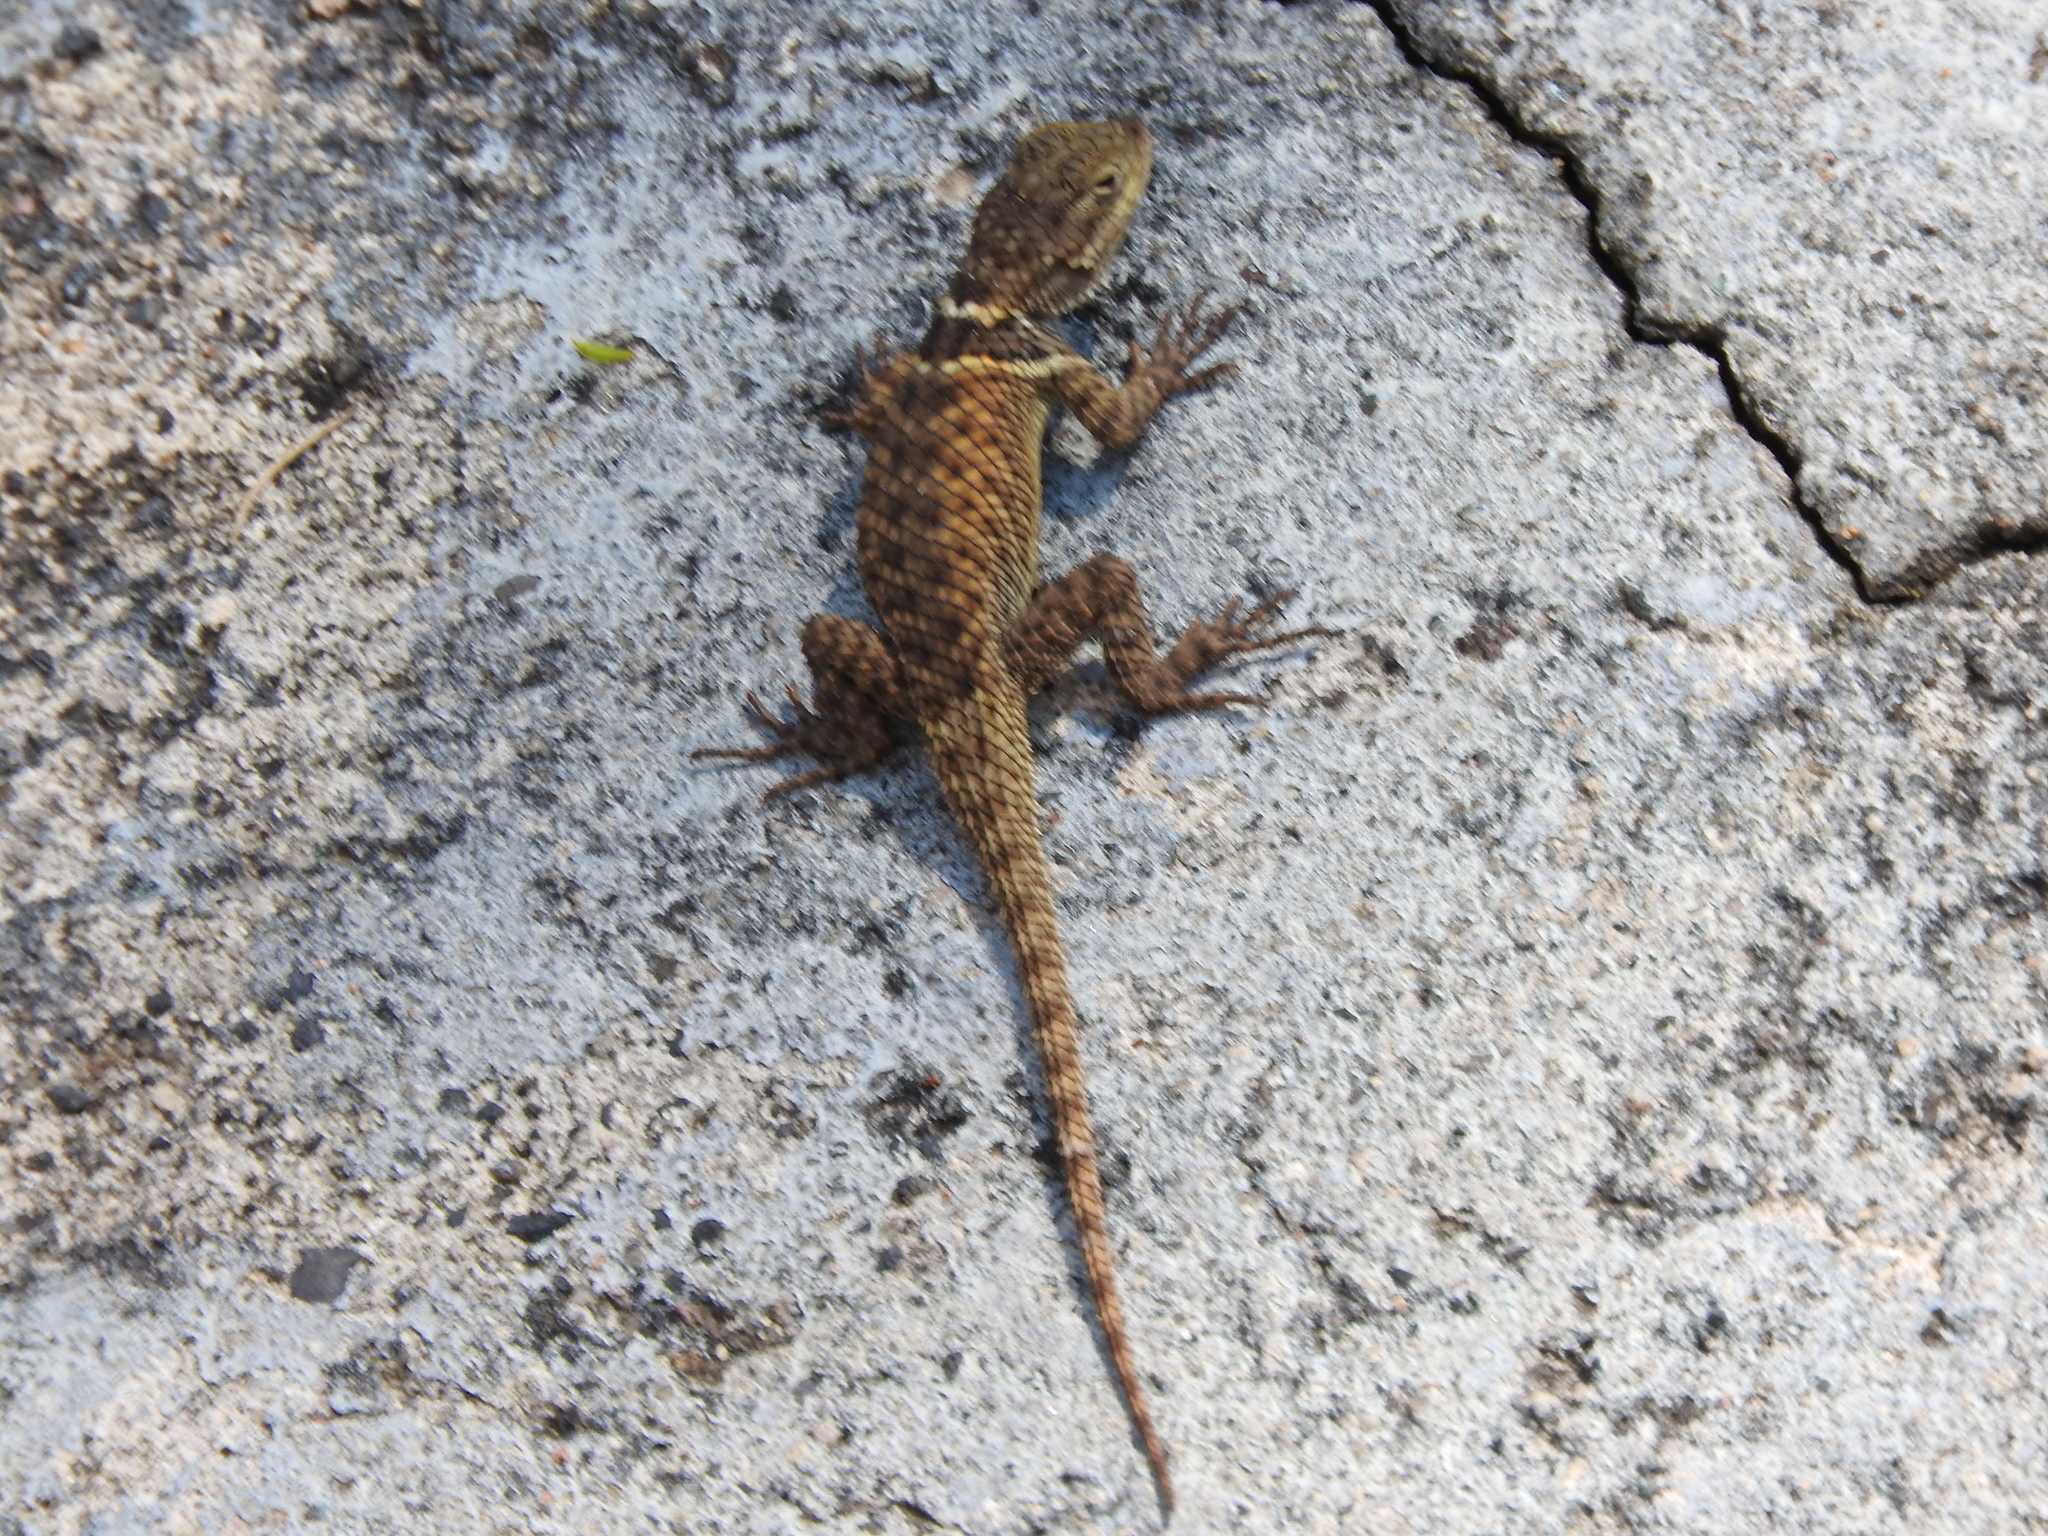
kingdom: Animalia
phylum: Chordata
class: Squamata
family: Phrynosomatidae
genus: Sceloporus
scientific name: Sceloporus torquatus
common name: Central plateau torquate lizard [melanogaster]
